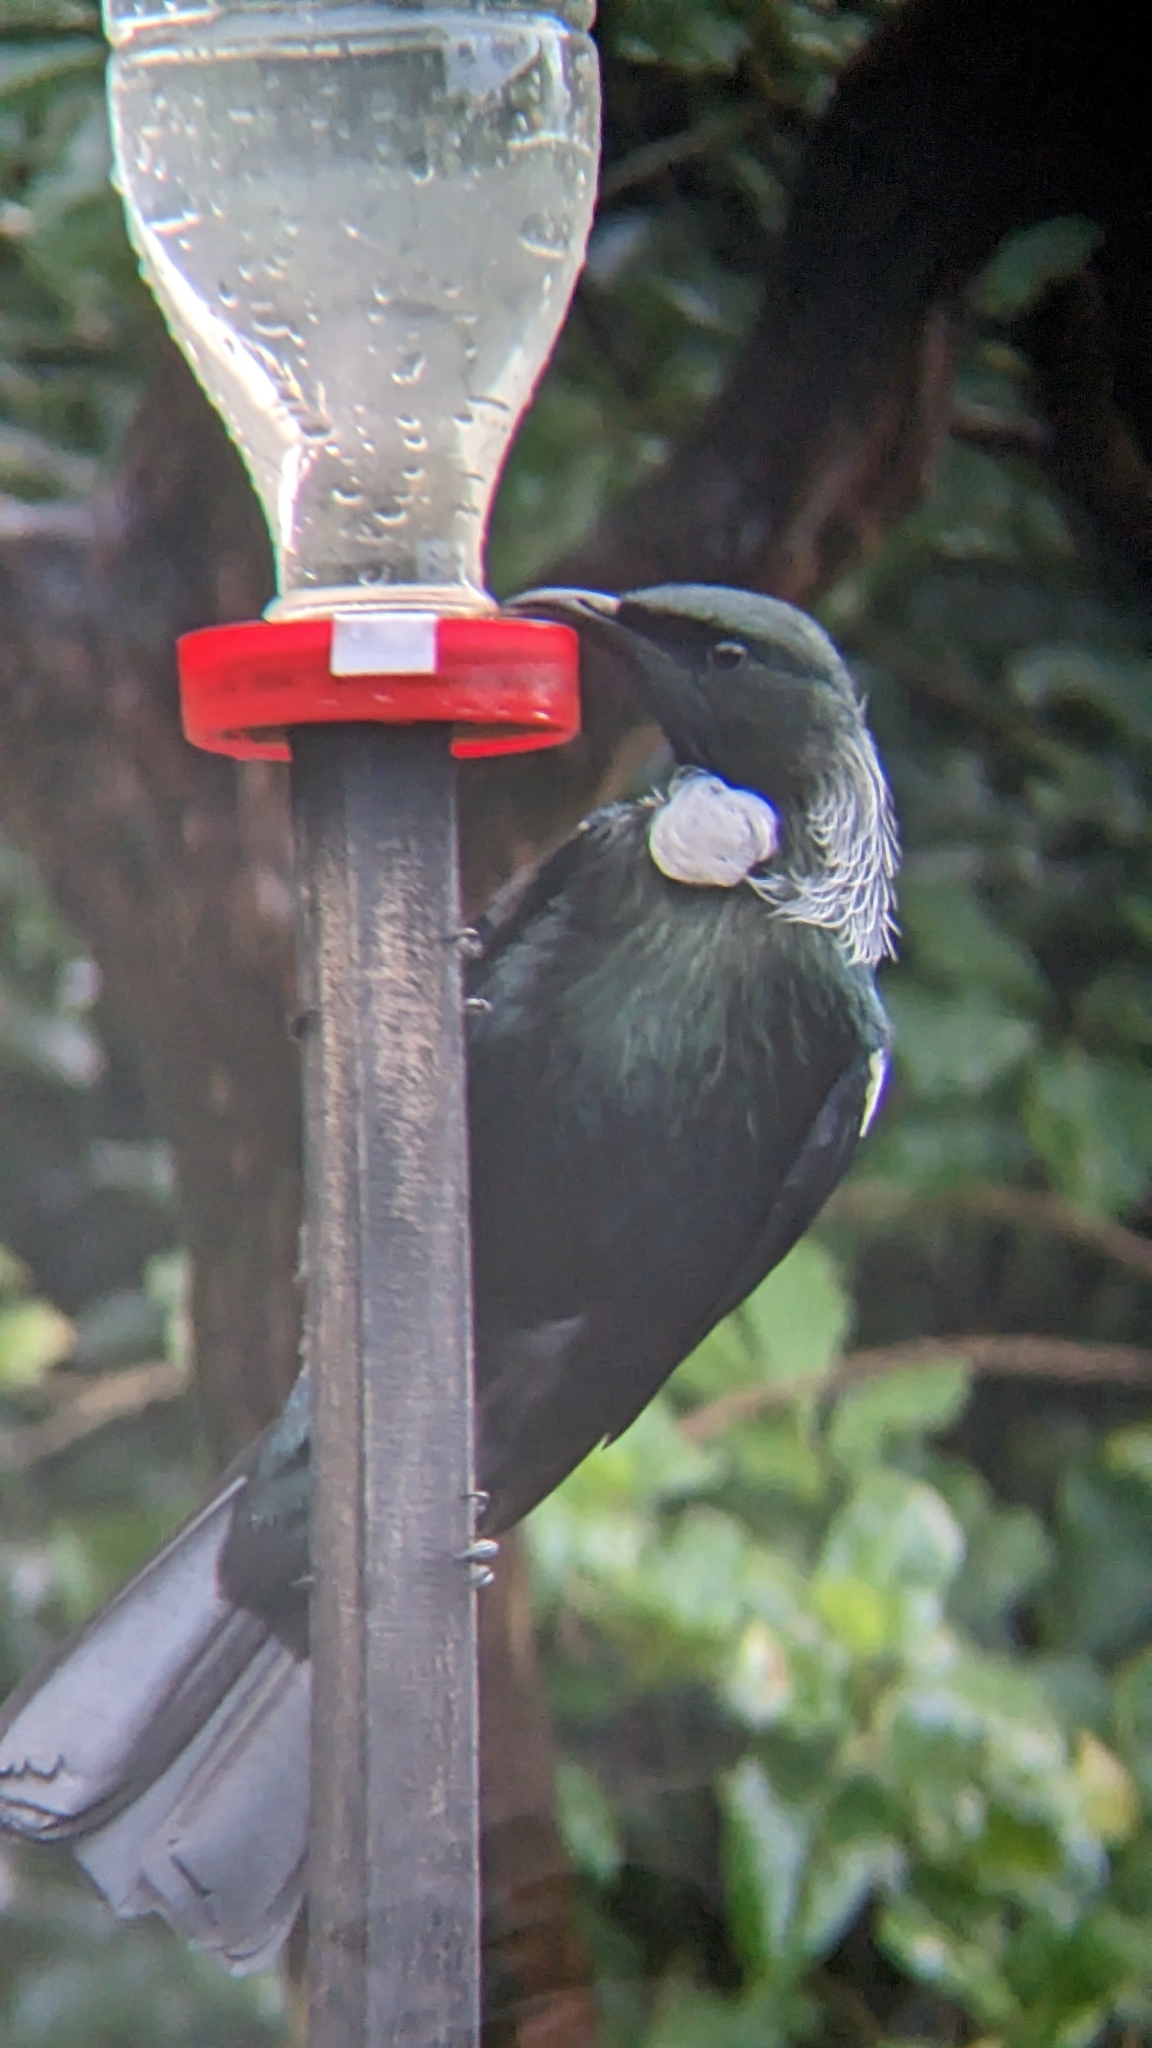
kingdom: Animalia
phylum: Chordata
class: Aves
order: Passeriformes
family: Meliphagidae
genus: Prosthemadera
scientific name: Prosthemadera novaeseelandiae
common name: Tui
